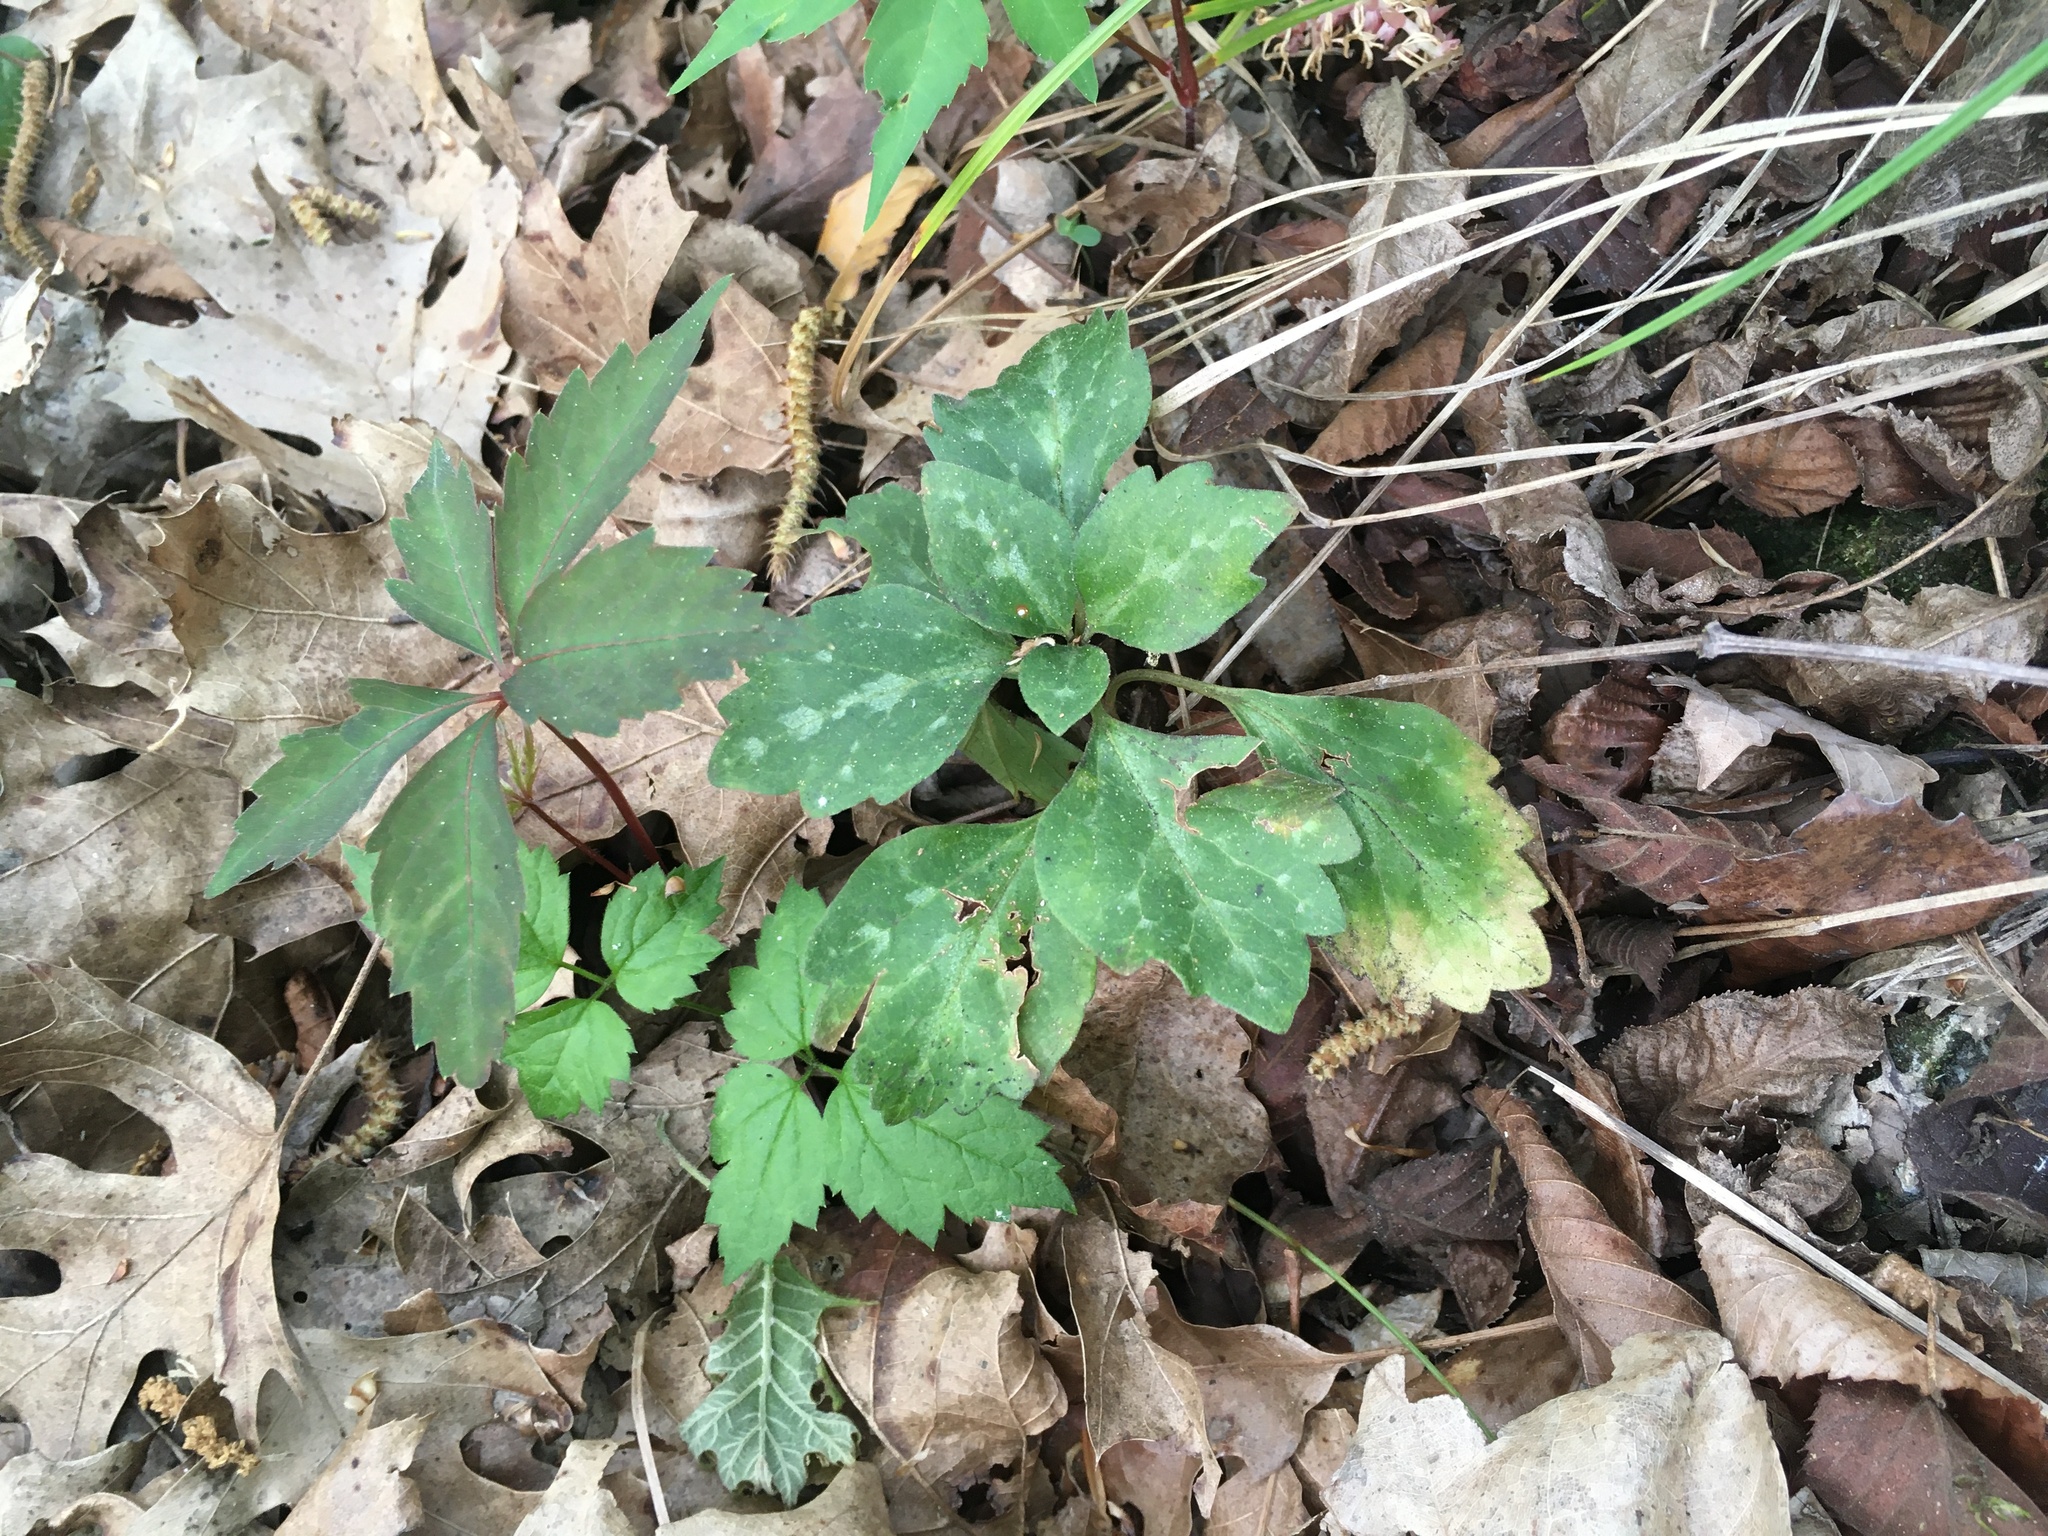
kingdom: Plantae
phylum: Tracheophyta
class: Magnoliopsida
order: Buxales
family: Buxaceae
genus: Pachysandra
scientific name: Pachysandra procumbens
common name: Mountain-spurge
